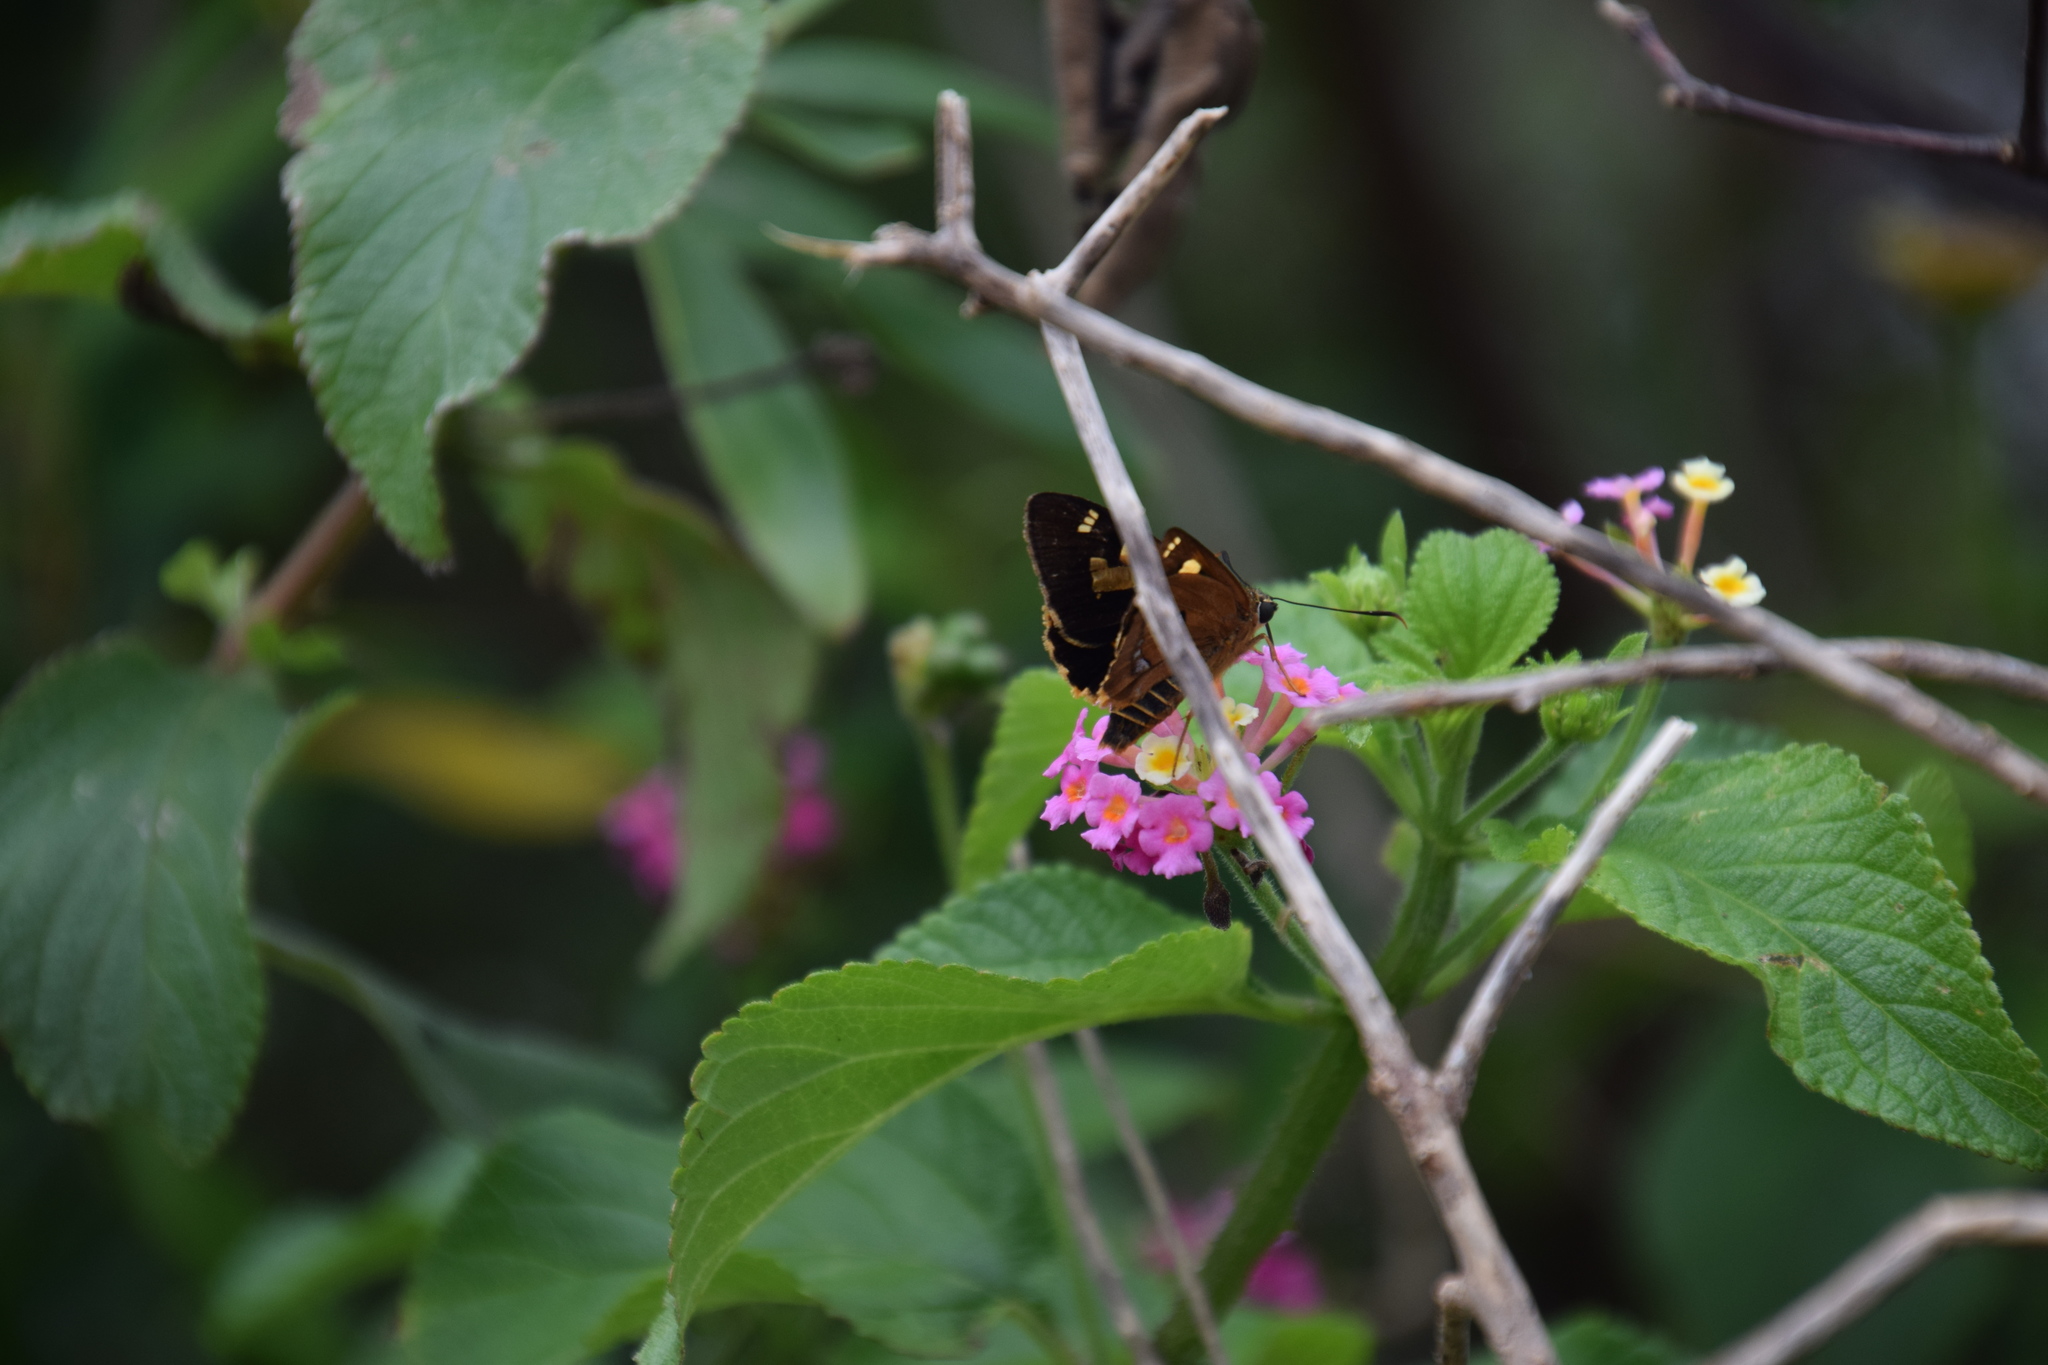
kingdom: Animalia
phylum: Arthropoda
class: Insecta
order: Lepidoptera
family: Hesperiidae
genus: Trapezites
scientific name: Trapezites symmomus
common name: Splendid ochre
